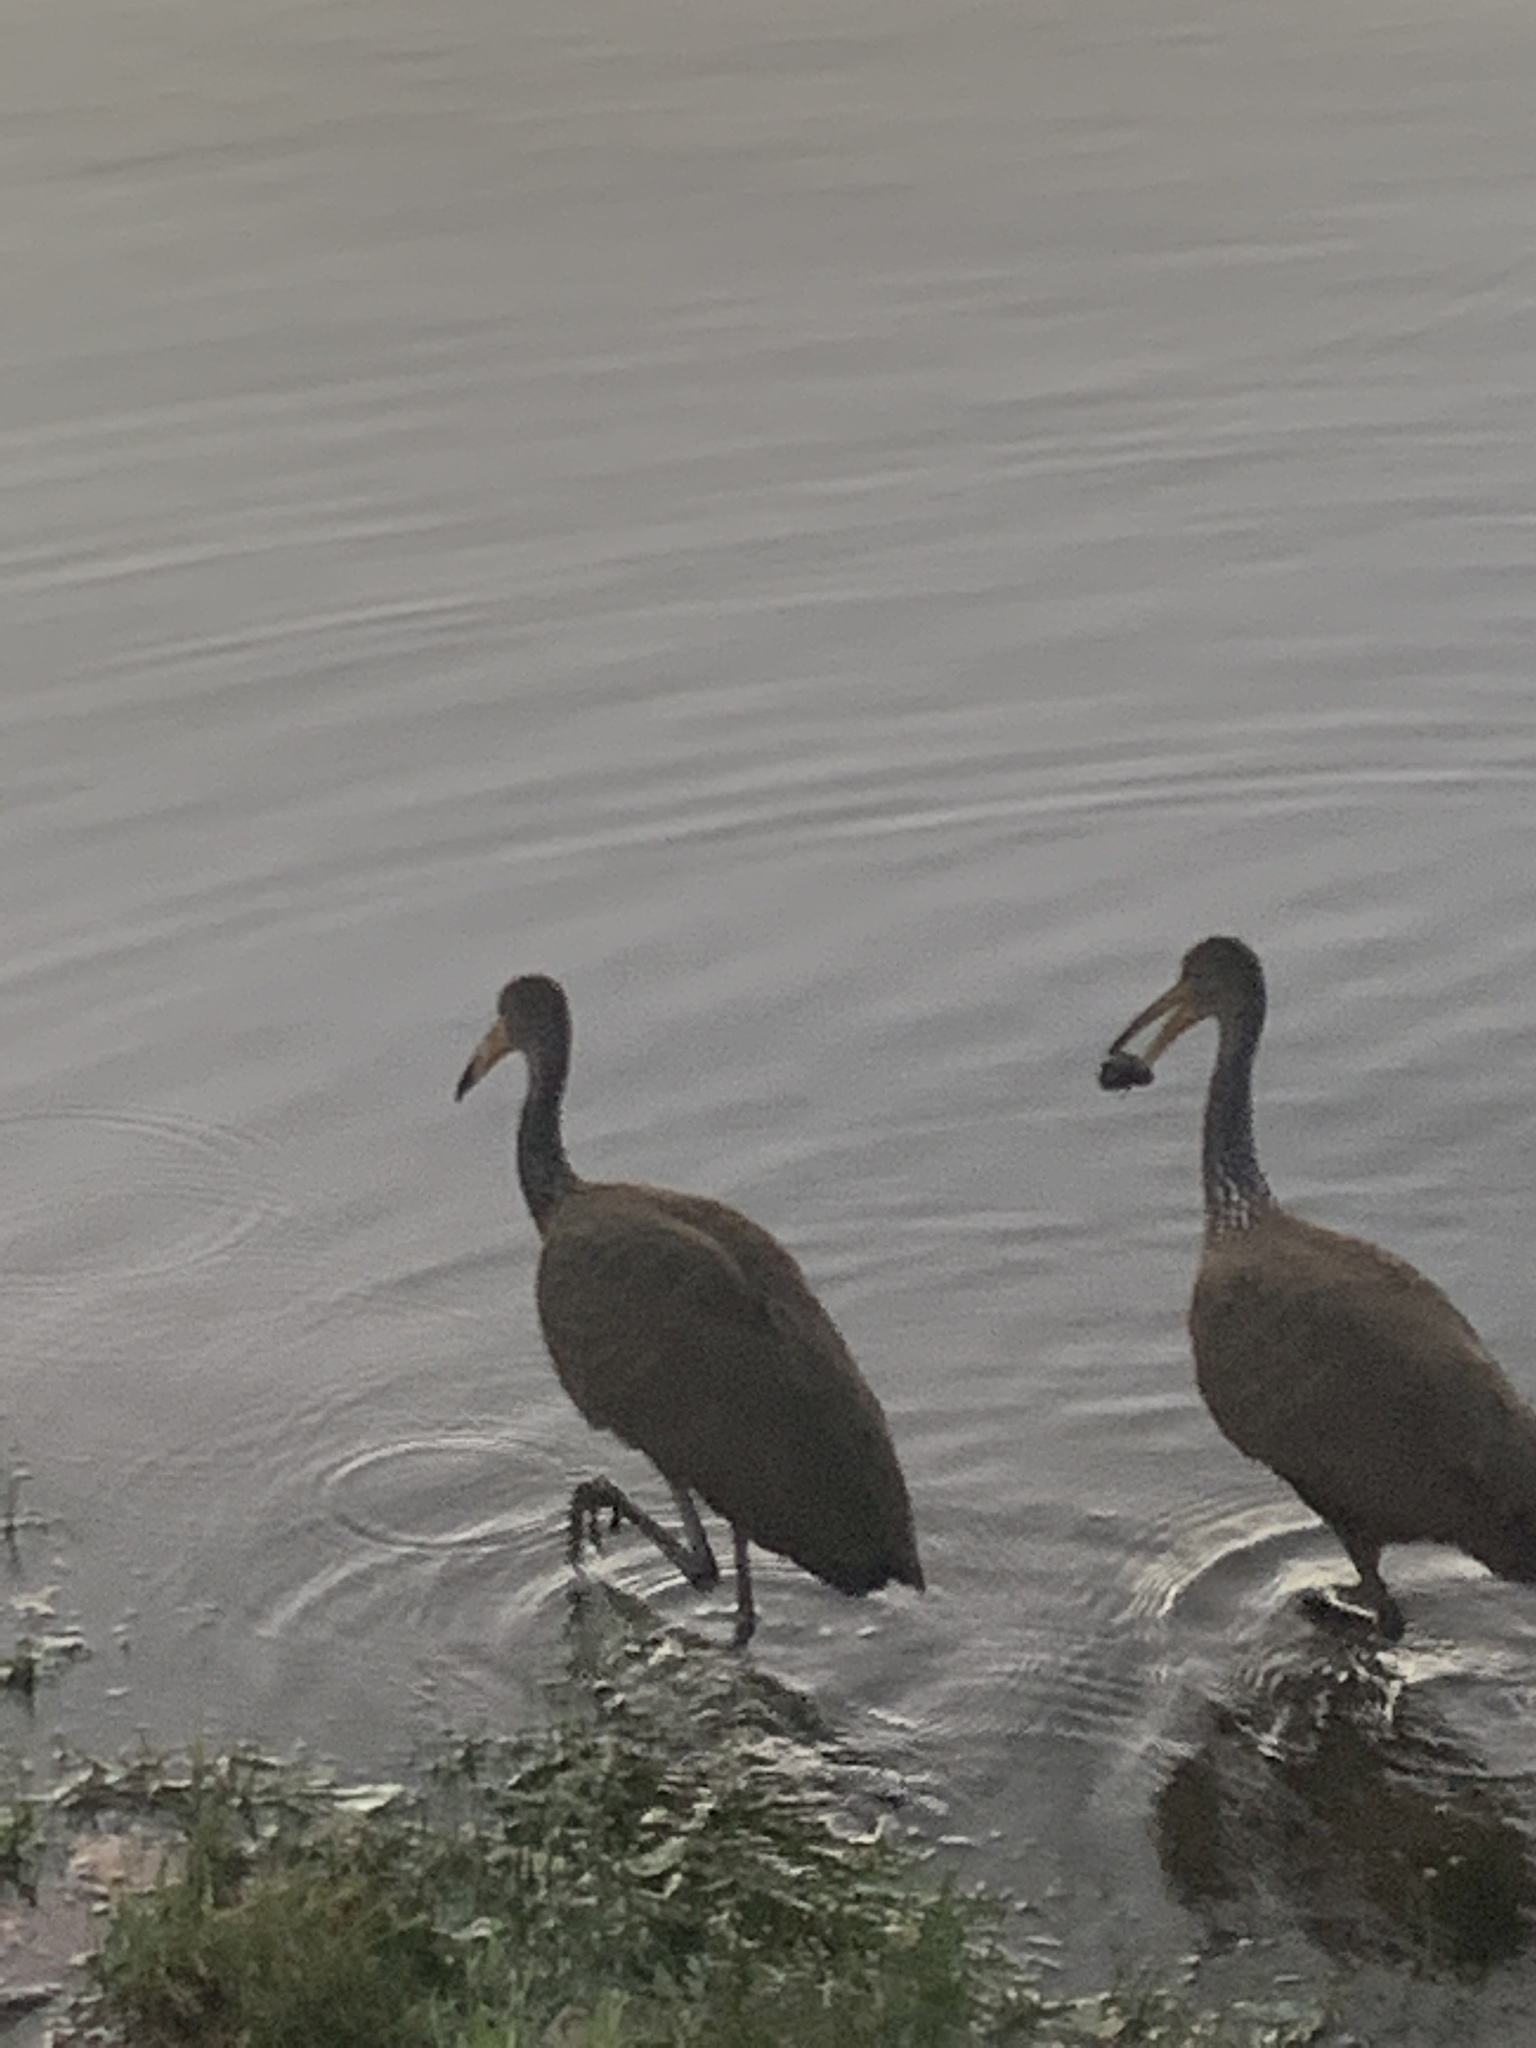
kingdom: Animalia
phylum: Chordata
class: Aves
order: Gruiformes
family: Aramidae
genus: Aramus
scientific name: Aramus guarauna
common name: Limpkin
